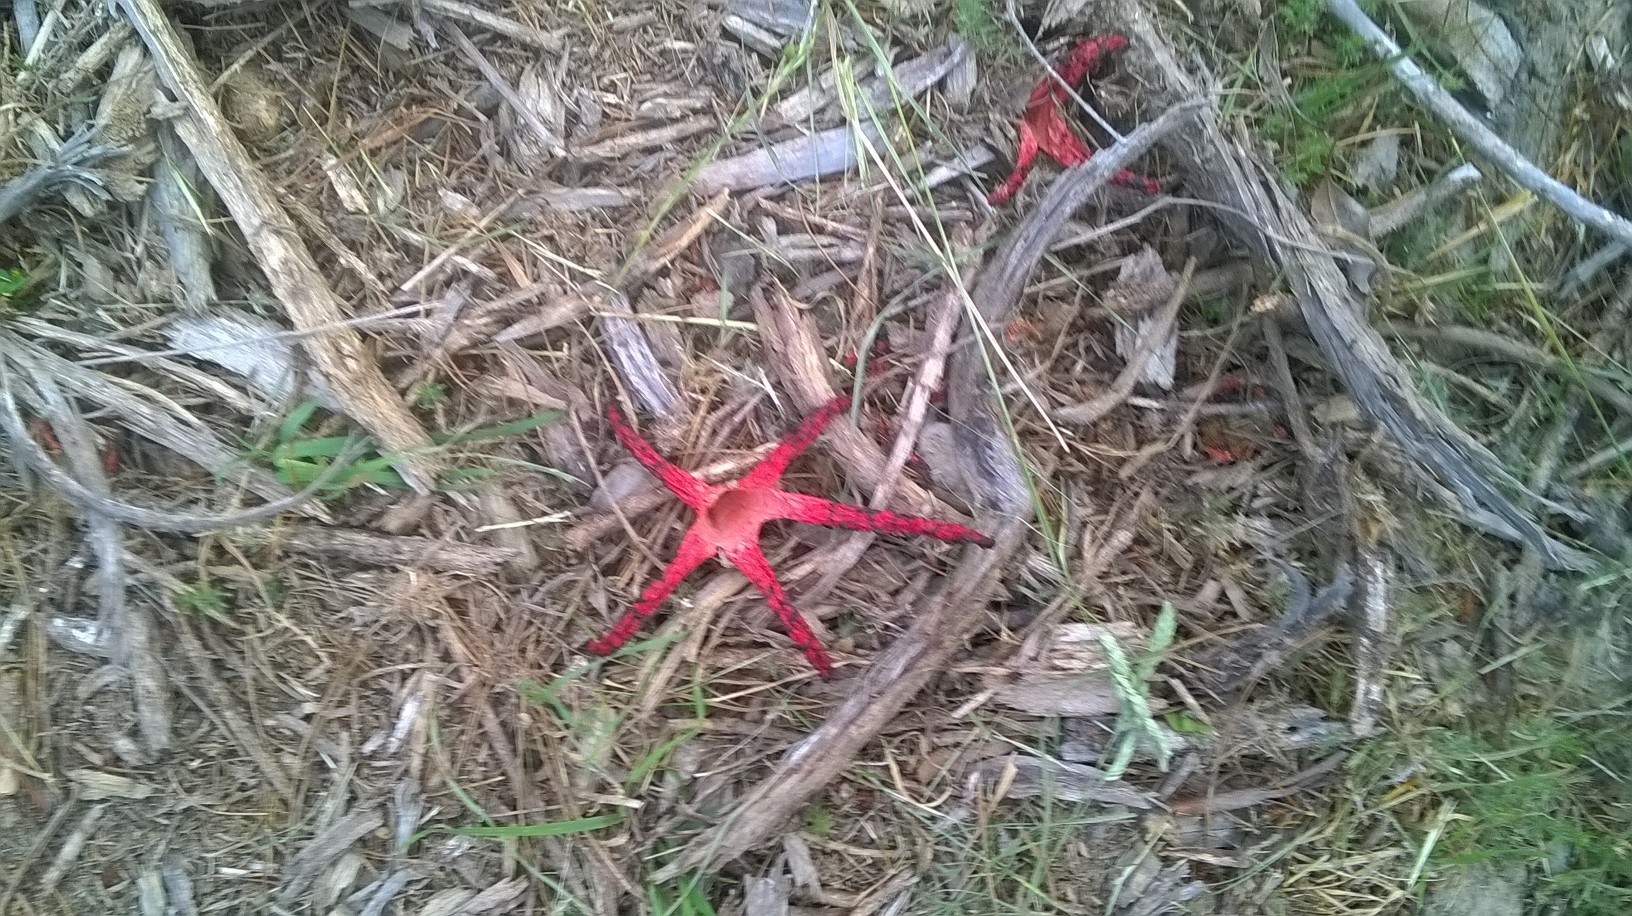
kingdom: Fungi
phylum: Basidiomycota
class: Agaricomycetes
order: Phallales
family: Phallaceae
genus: Clathrus
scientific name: Clathrus archeri
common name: Devil's fingers
